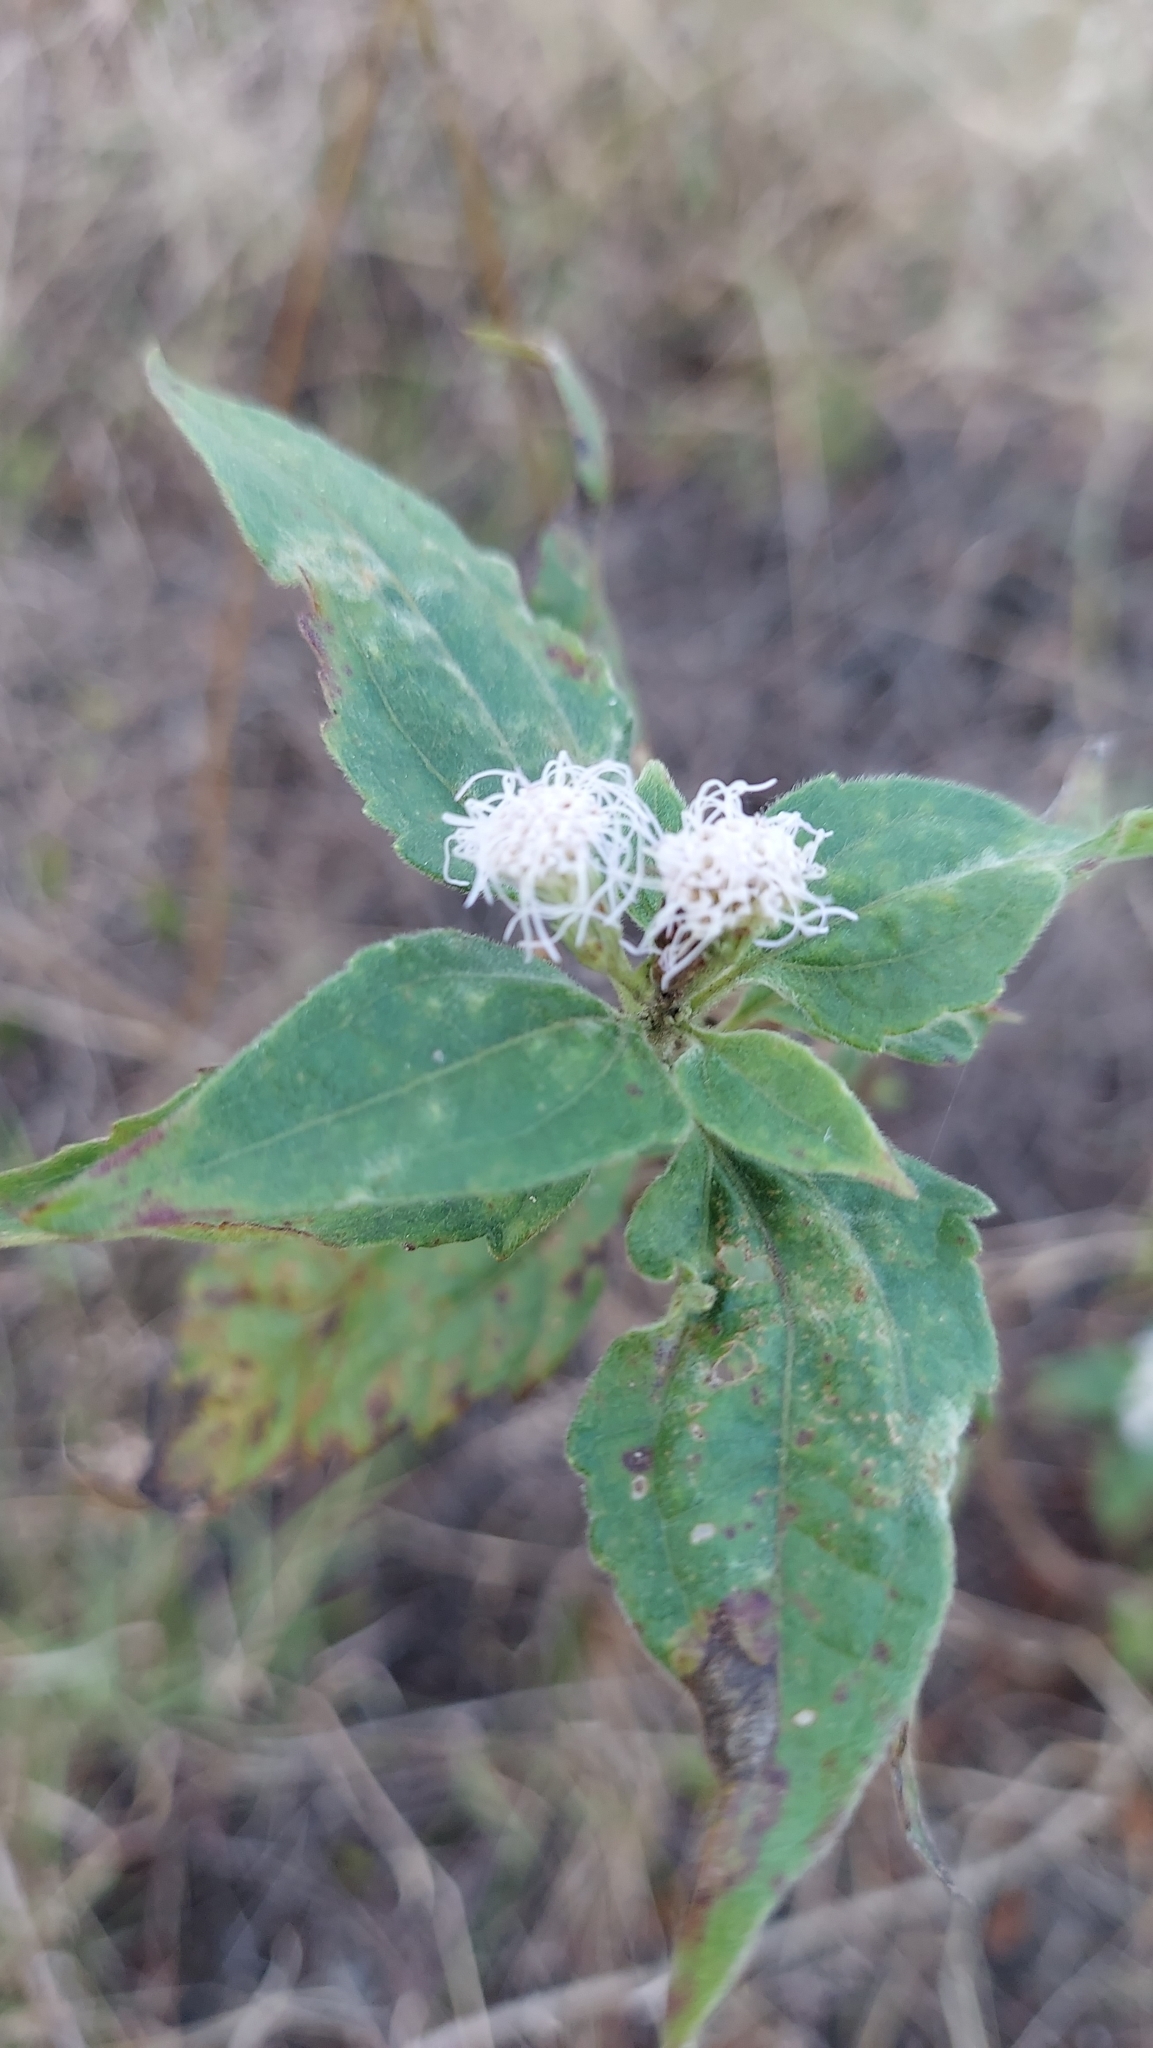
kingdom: Plantae
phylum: Tracheophyta
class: Magnoliopsida
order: Asterales
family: Asteraceae
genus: Chromolaena
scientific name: Chromolaena odorata
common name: Siamweed
